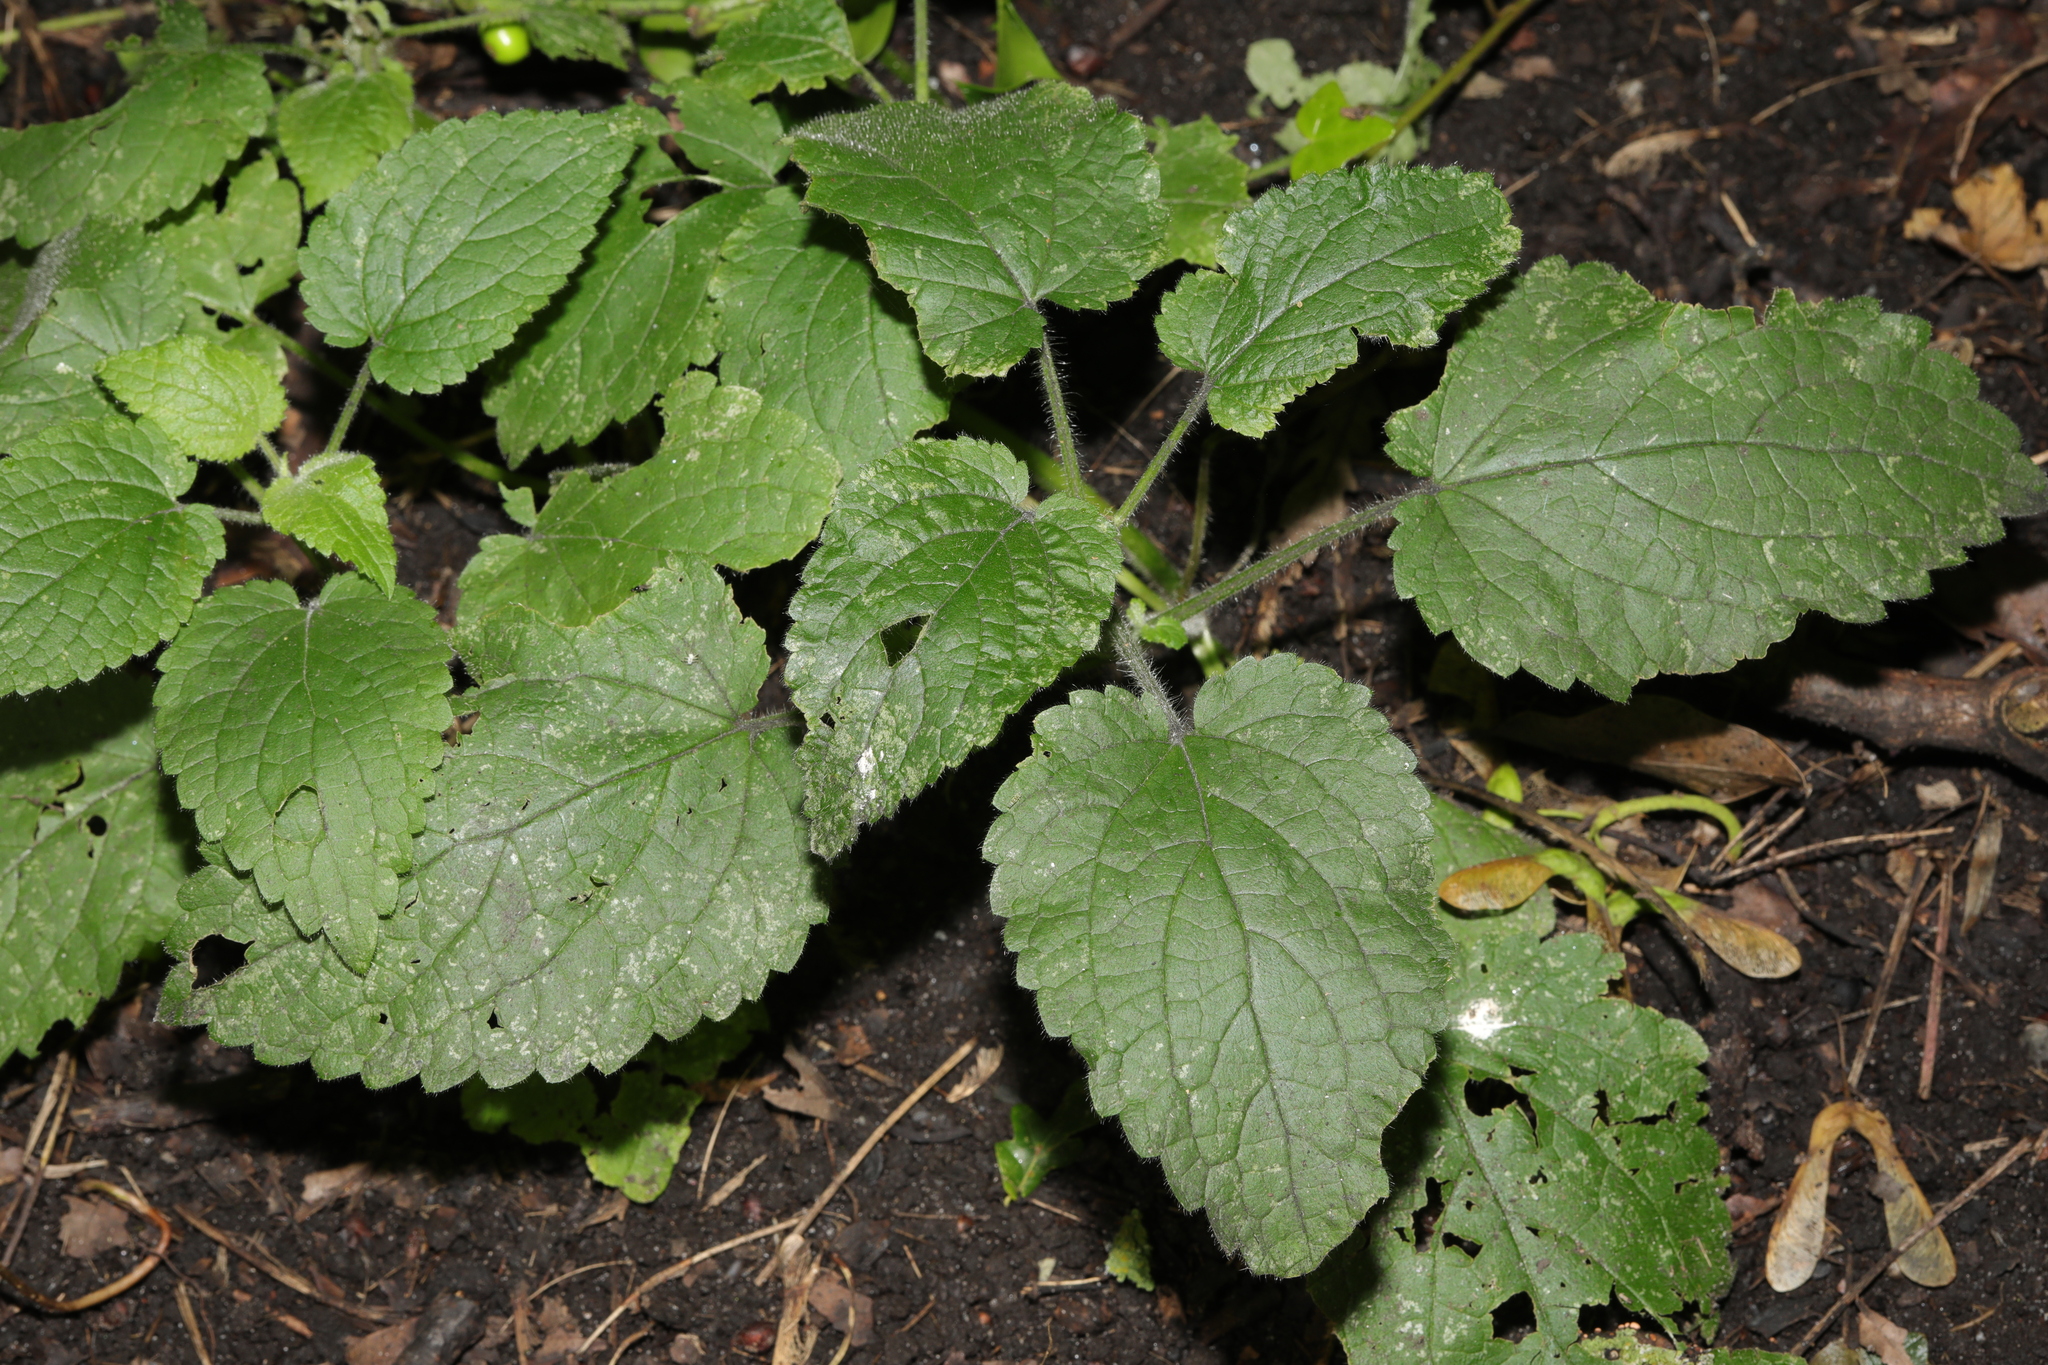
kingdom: Plantae
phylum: Tracheophyta
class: Magnoliopsida
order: Lamiales
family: Lamiaceae
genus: Stachys
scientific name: Stachys sylvatica
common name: Hedge woundwort
